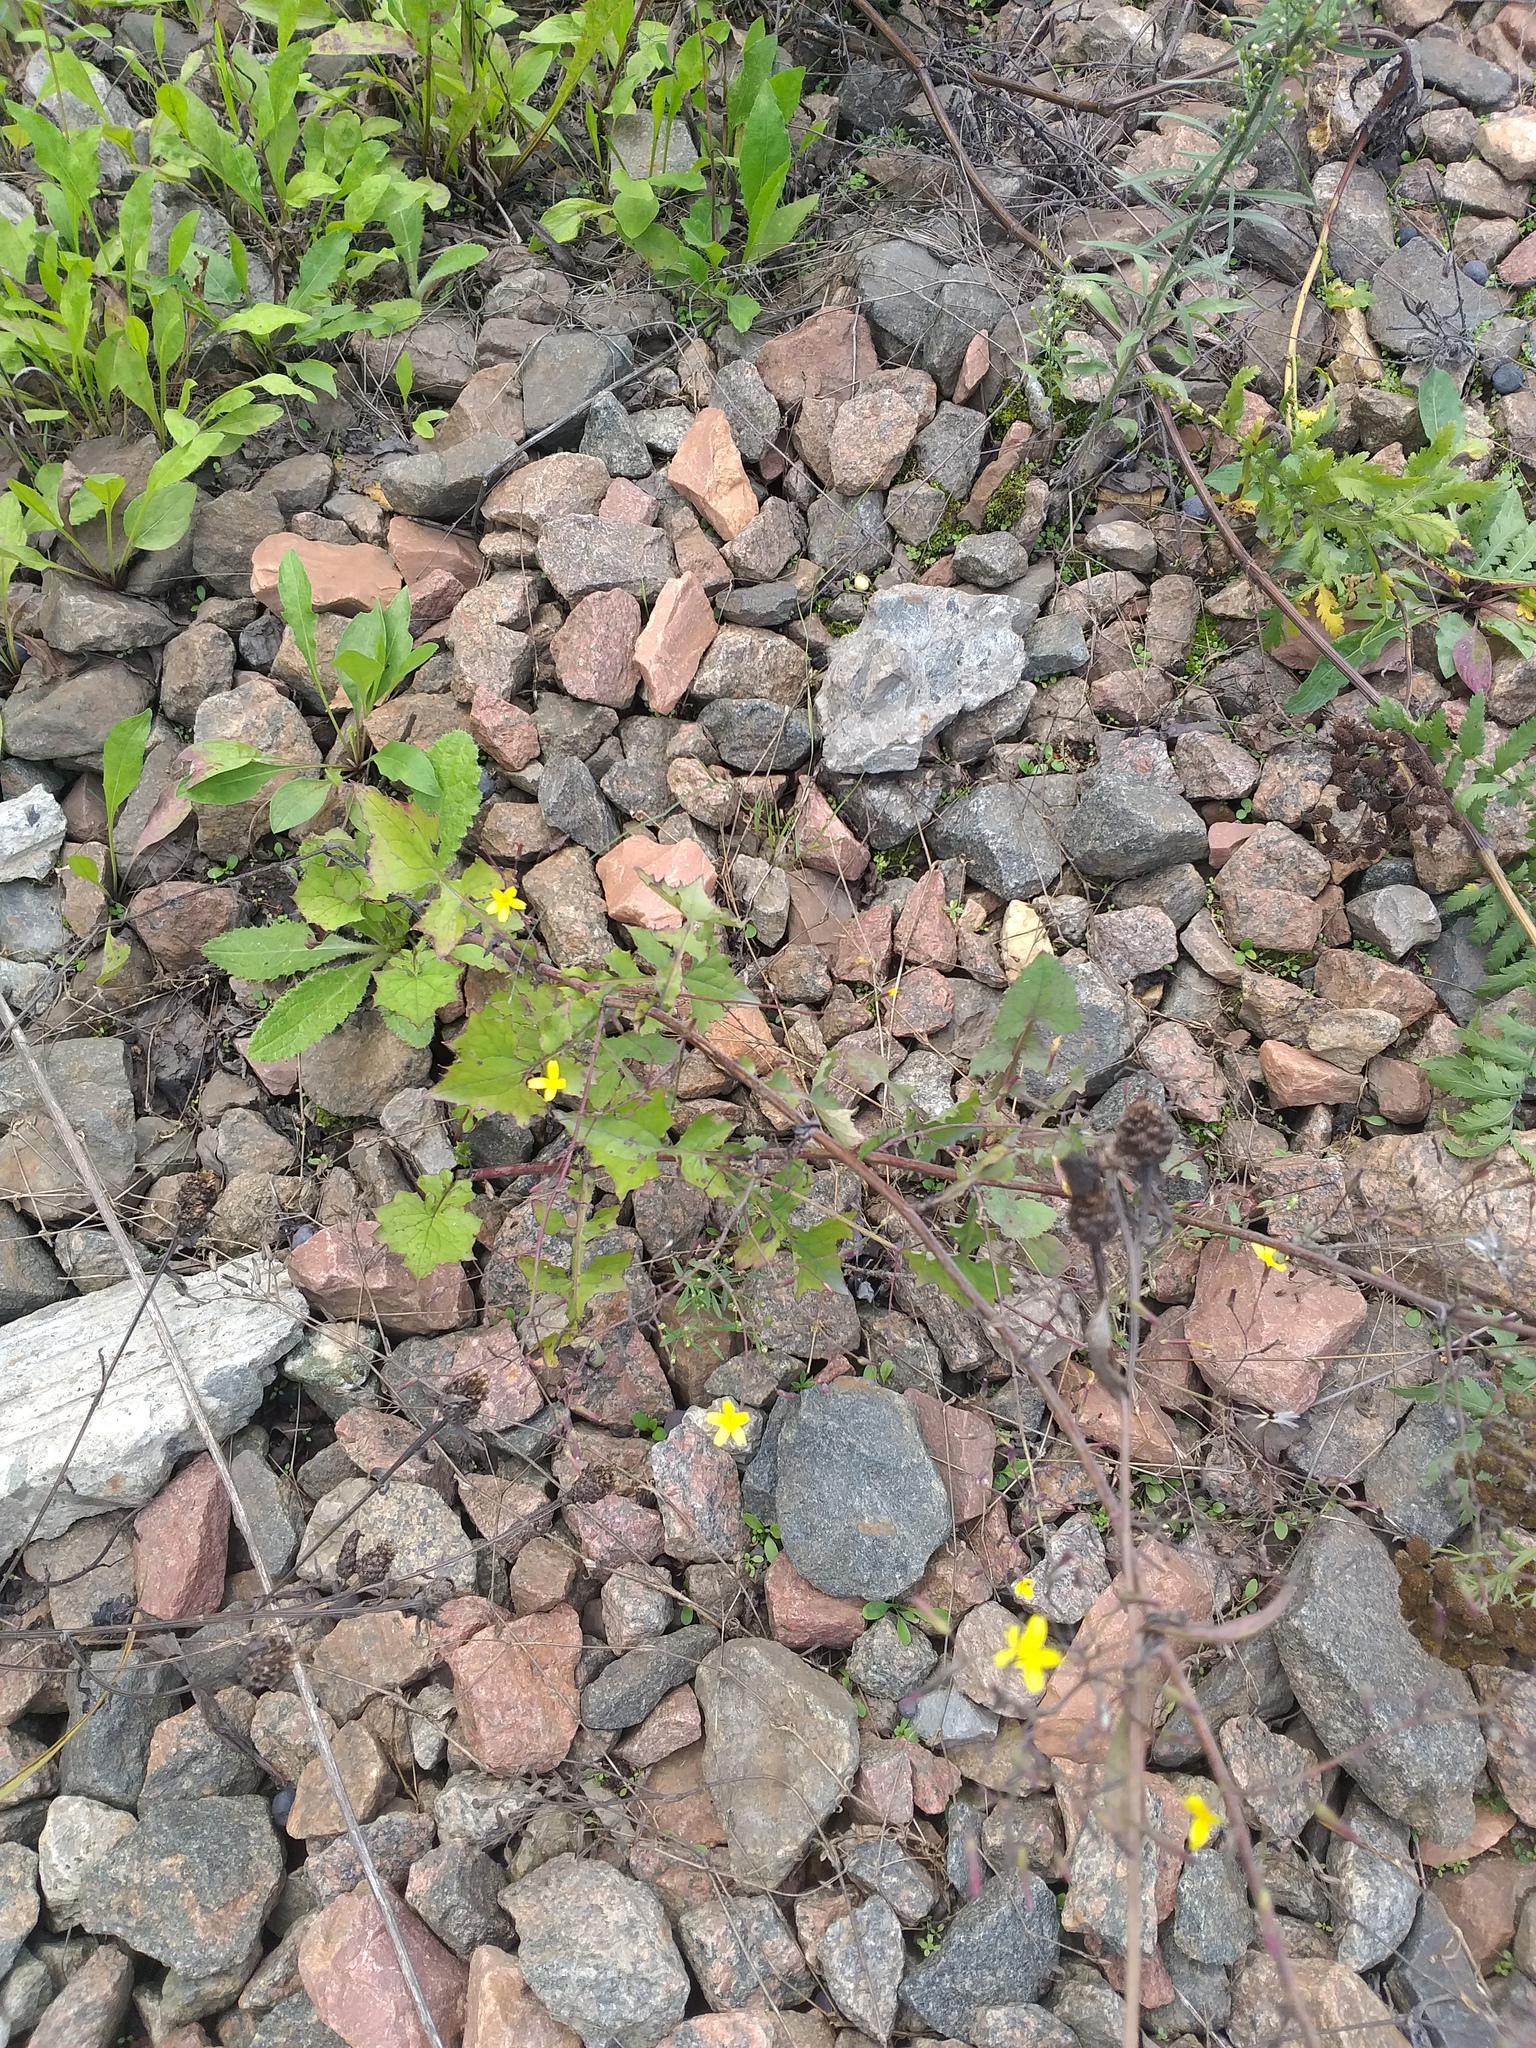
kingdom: Plantae
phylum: Tracheophyta
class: Magnoliopsida
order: Asterales
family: Asteraceae
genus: Mycelis
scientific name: Mycelis muralis
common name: Wall lettuce
